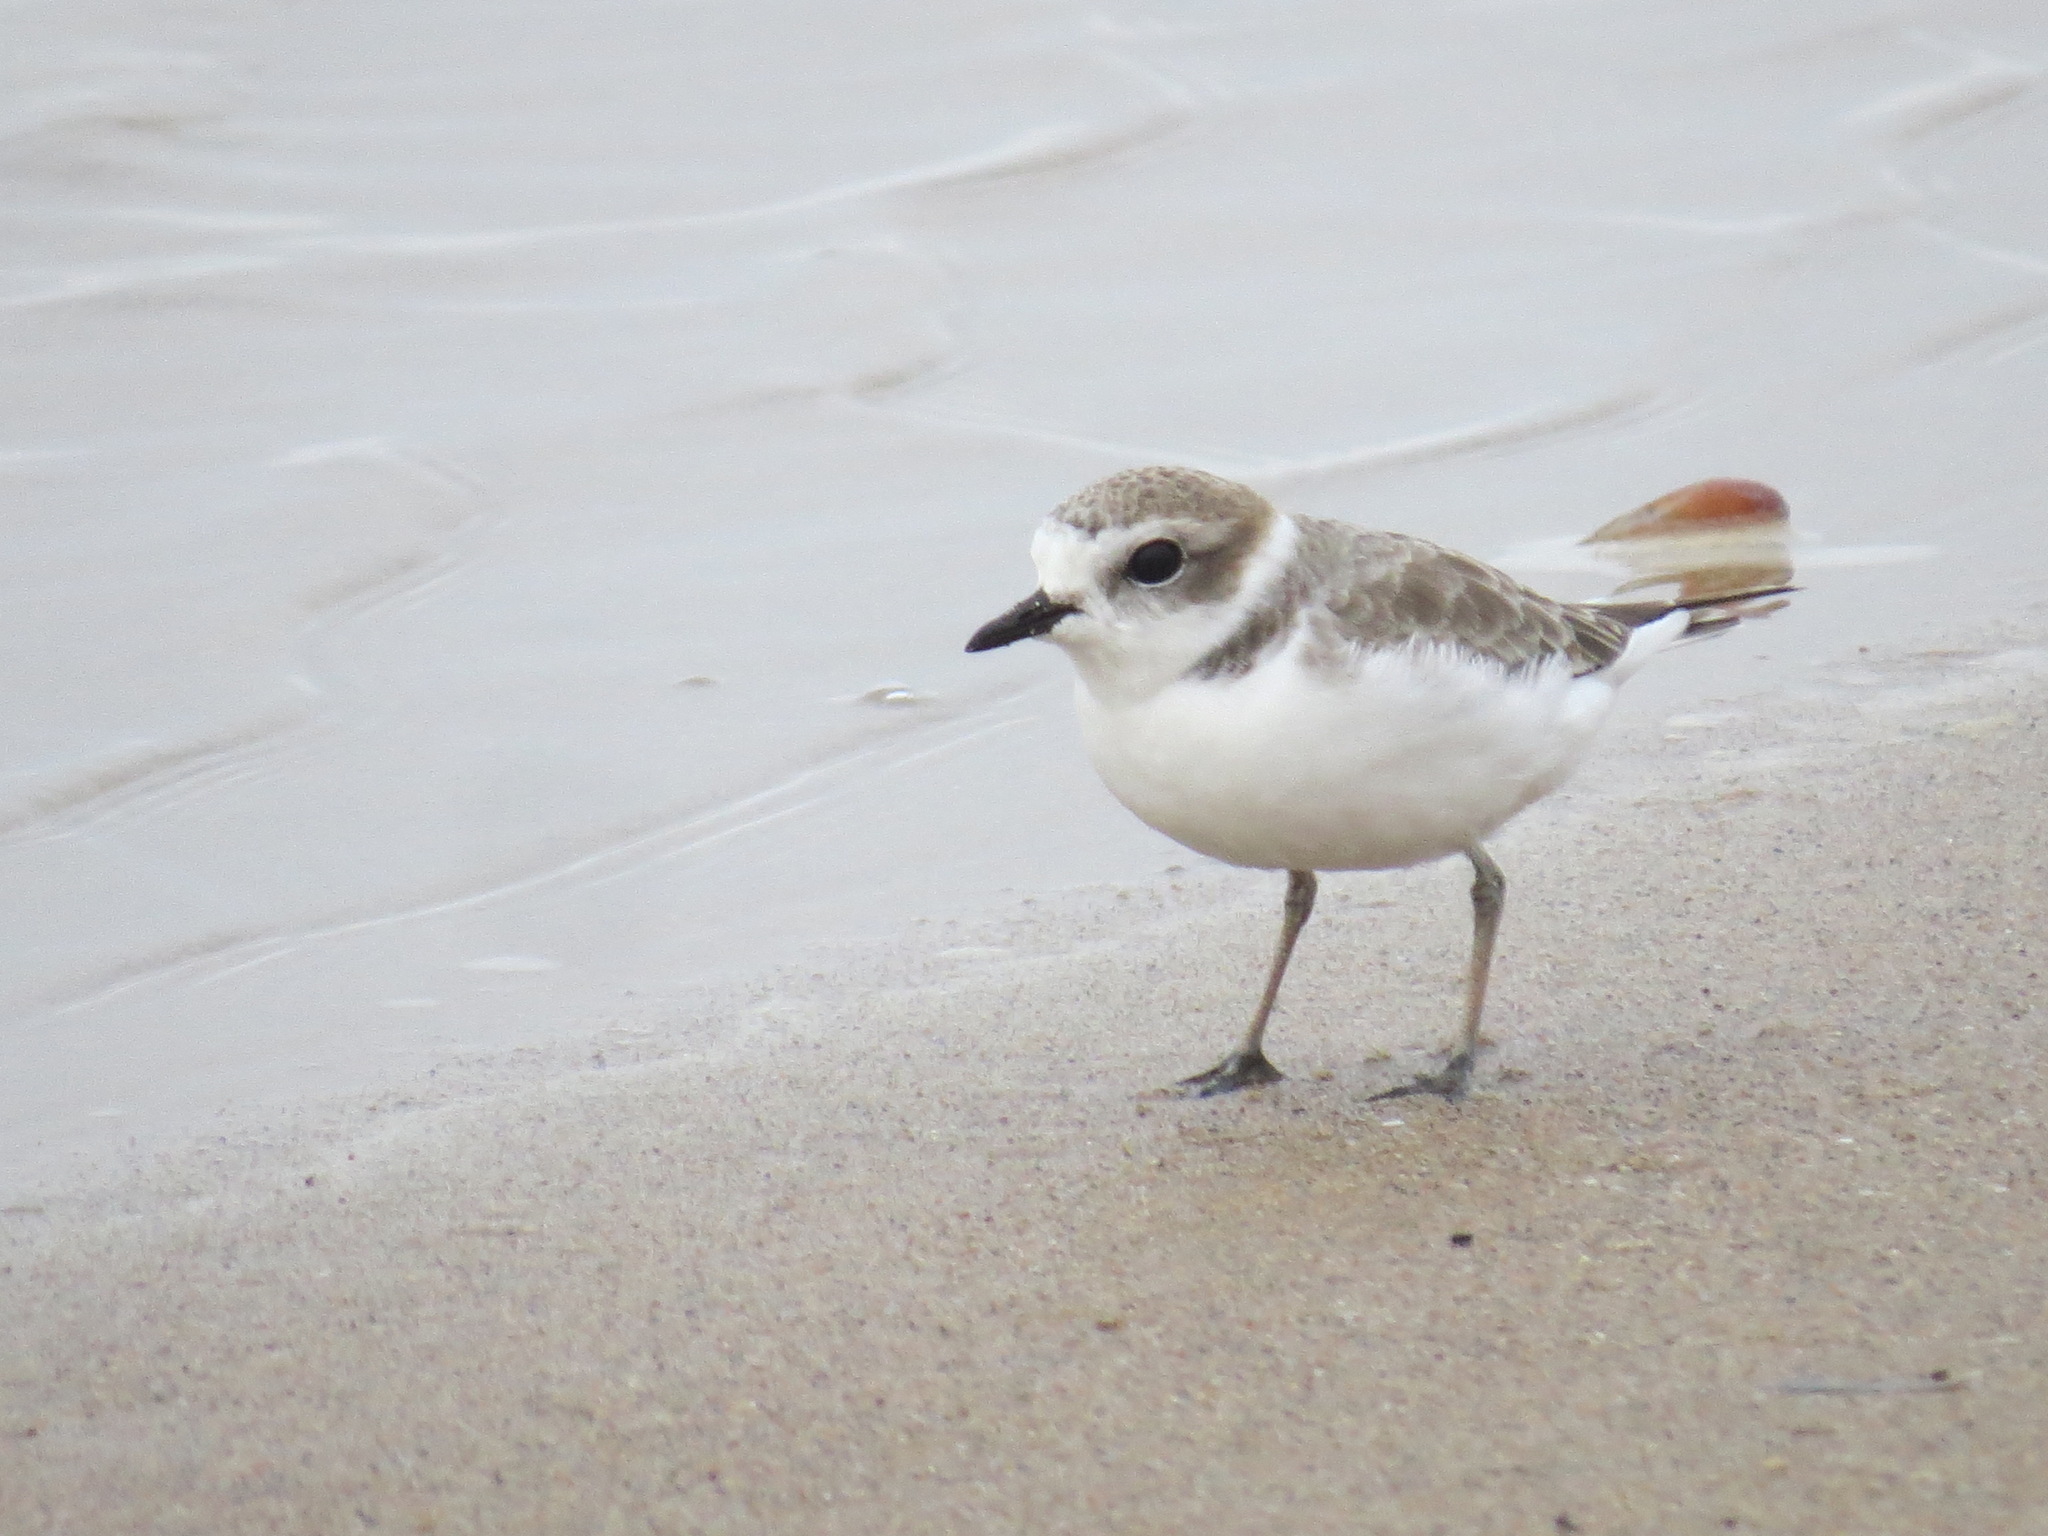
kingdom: Animalia
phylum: Chordata
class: Aves
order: Charadriiformes
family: Charadriidae
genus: Anarhynchus
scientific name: Anarhynchus
